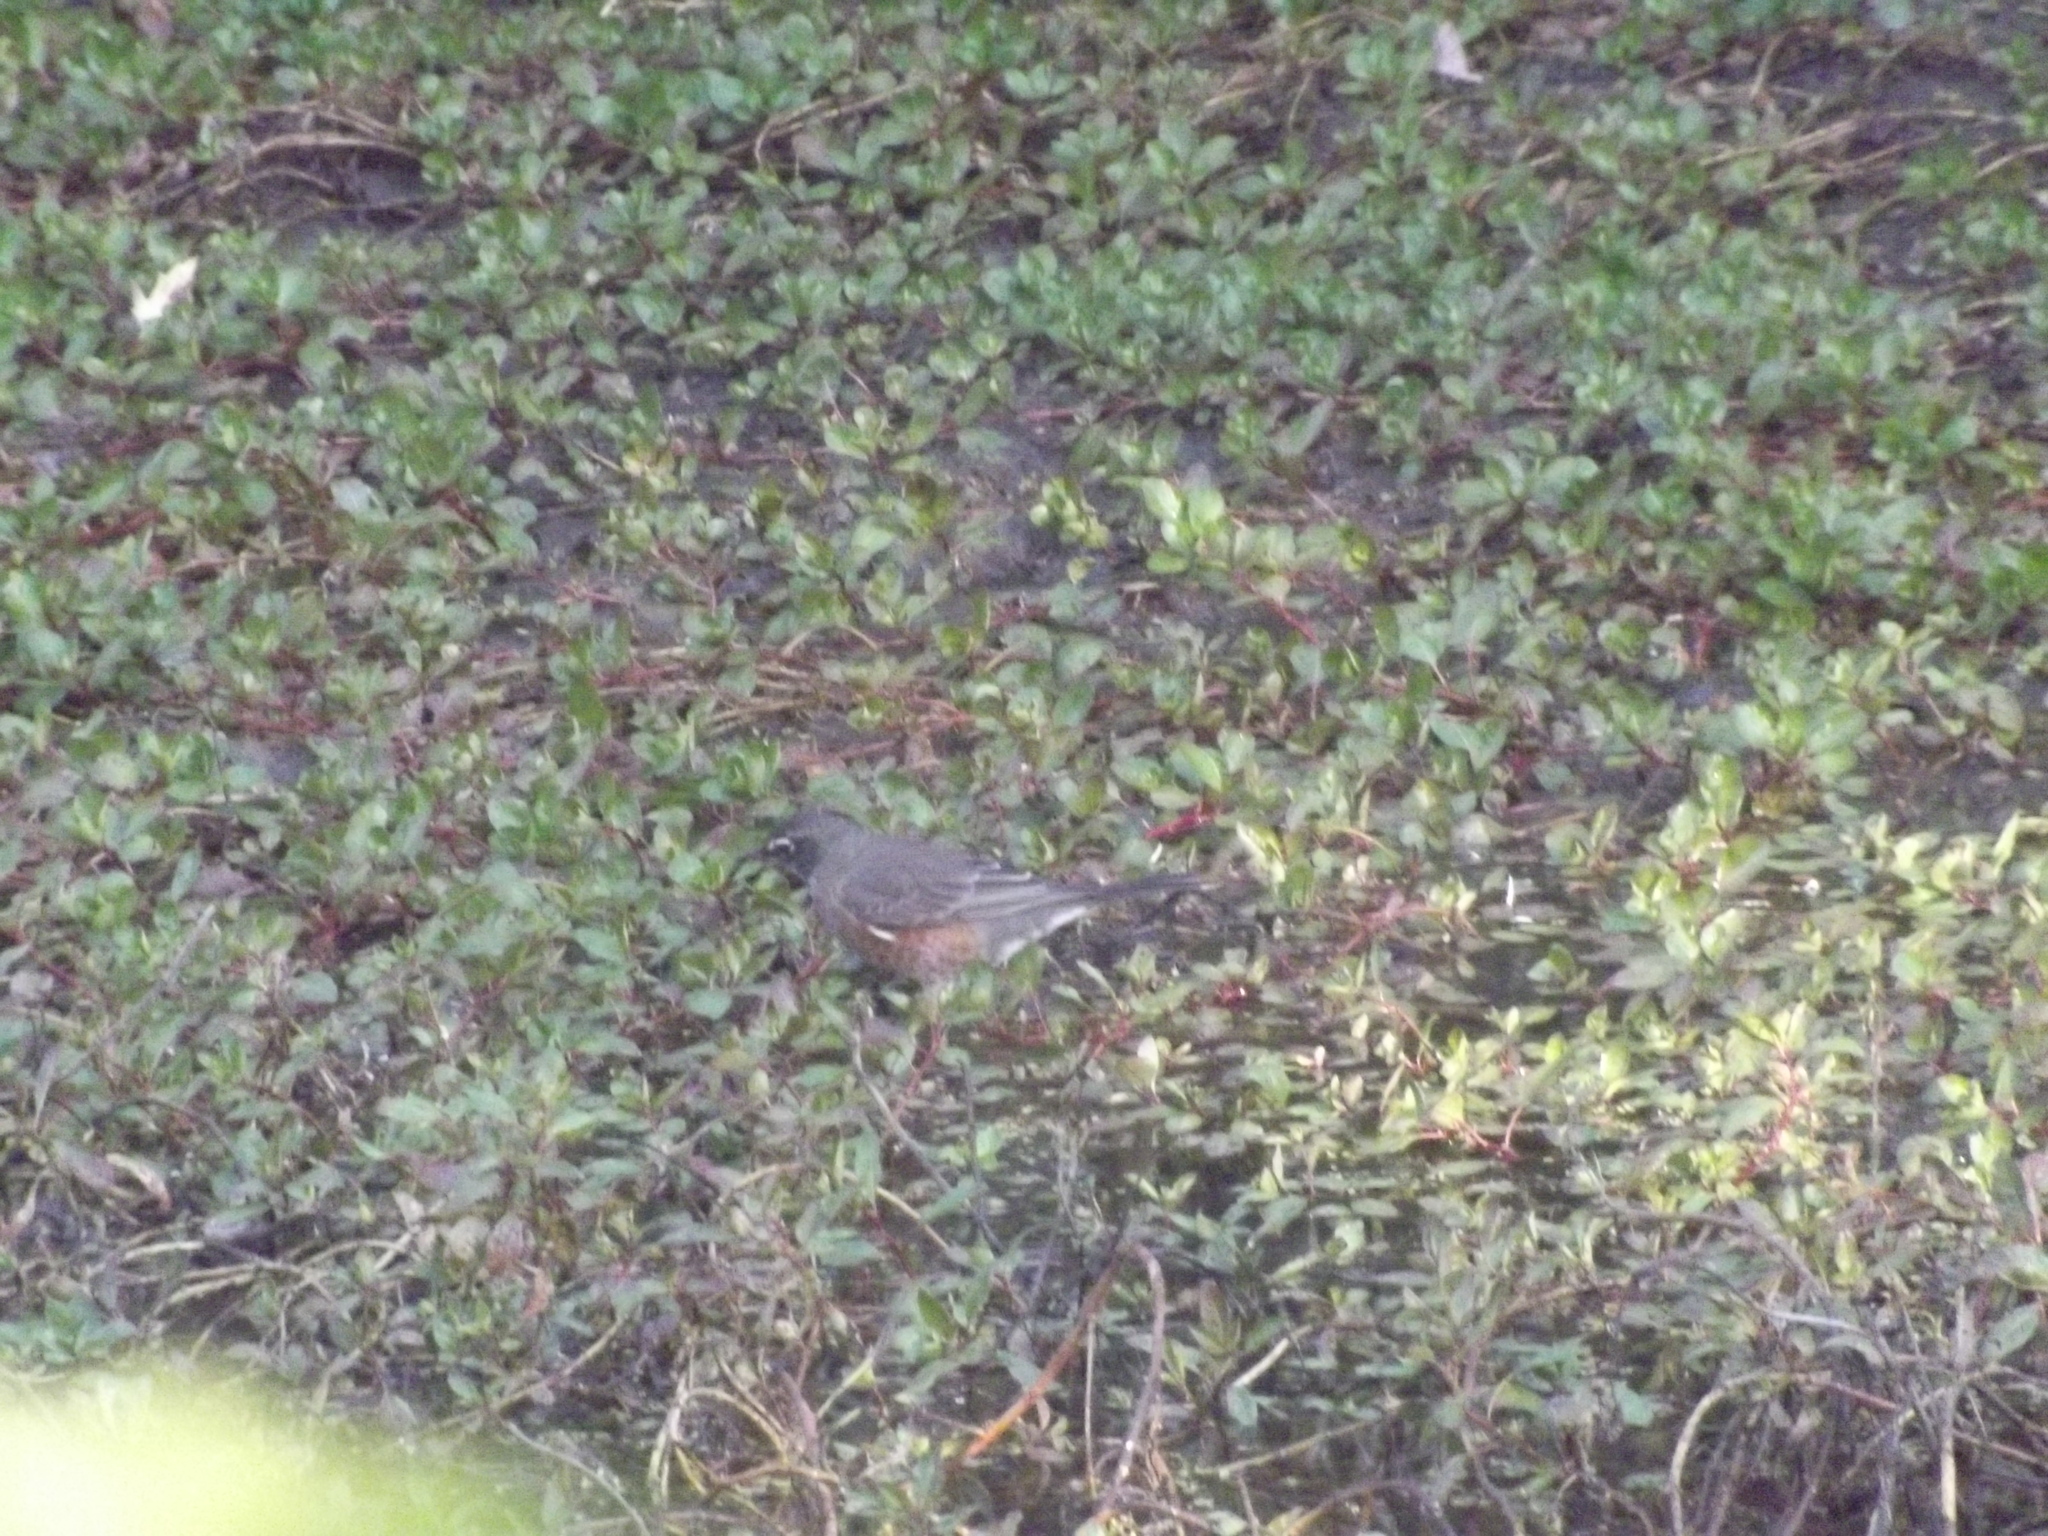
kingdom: Animalia
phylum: Chordata
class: Aves
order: Passeriformes
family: Turdidae
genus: Turdus
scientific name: Turdus migratorius
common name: American robin
